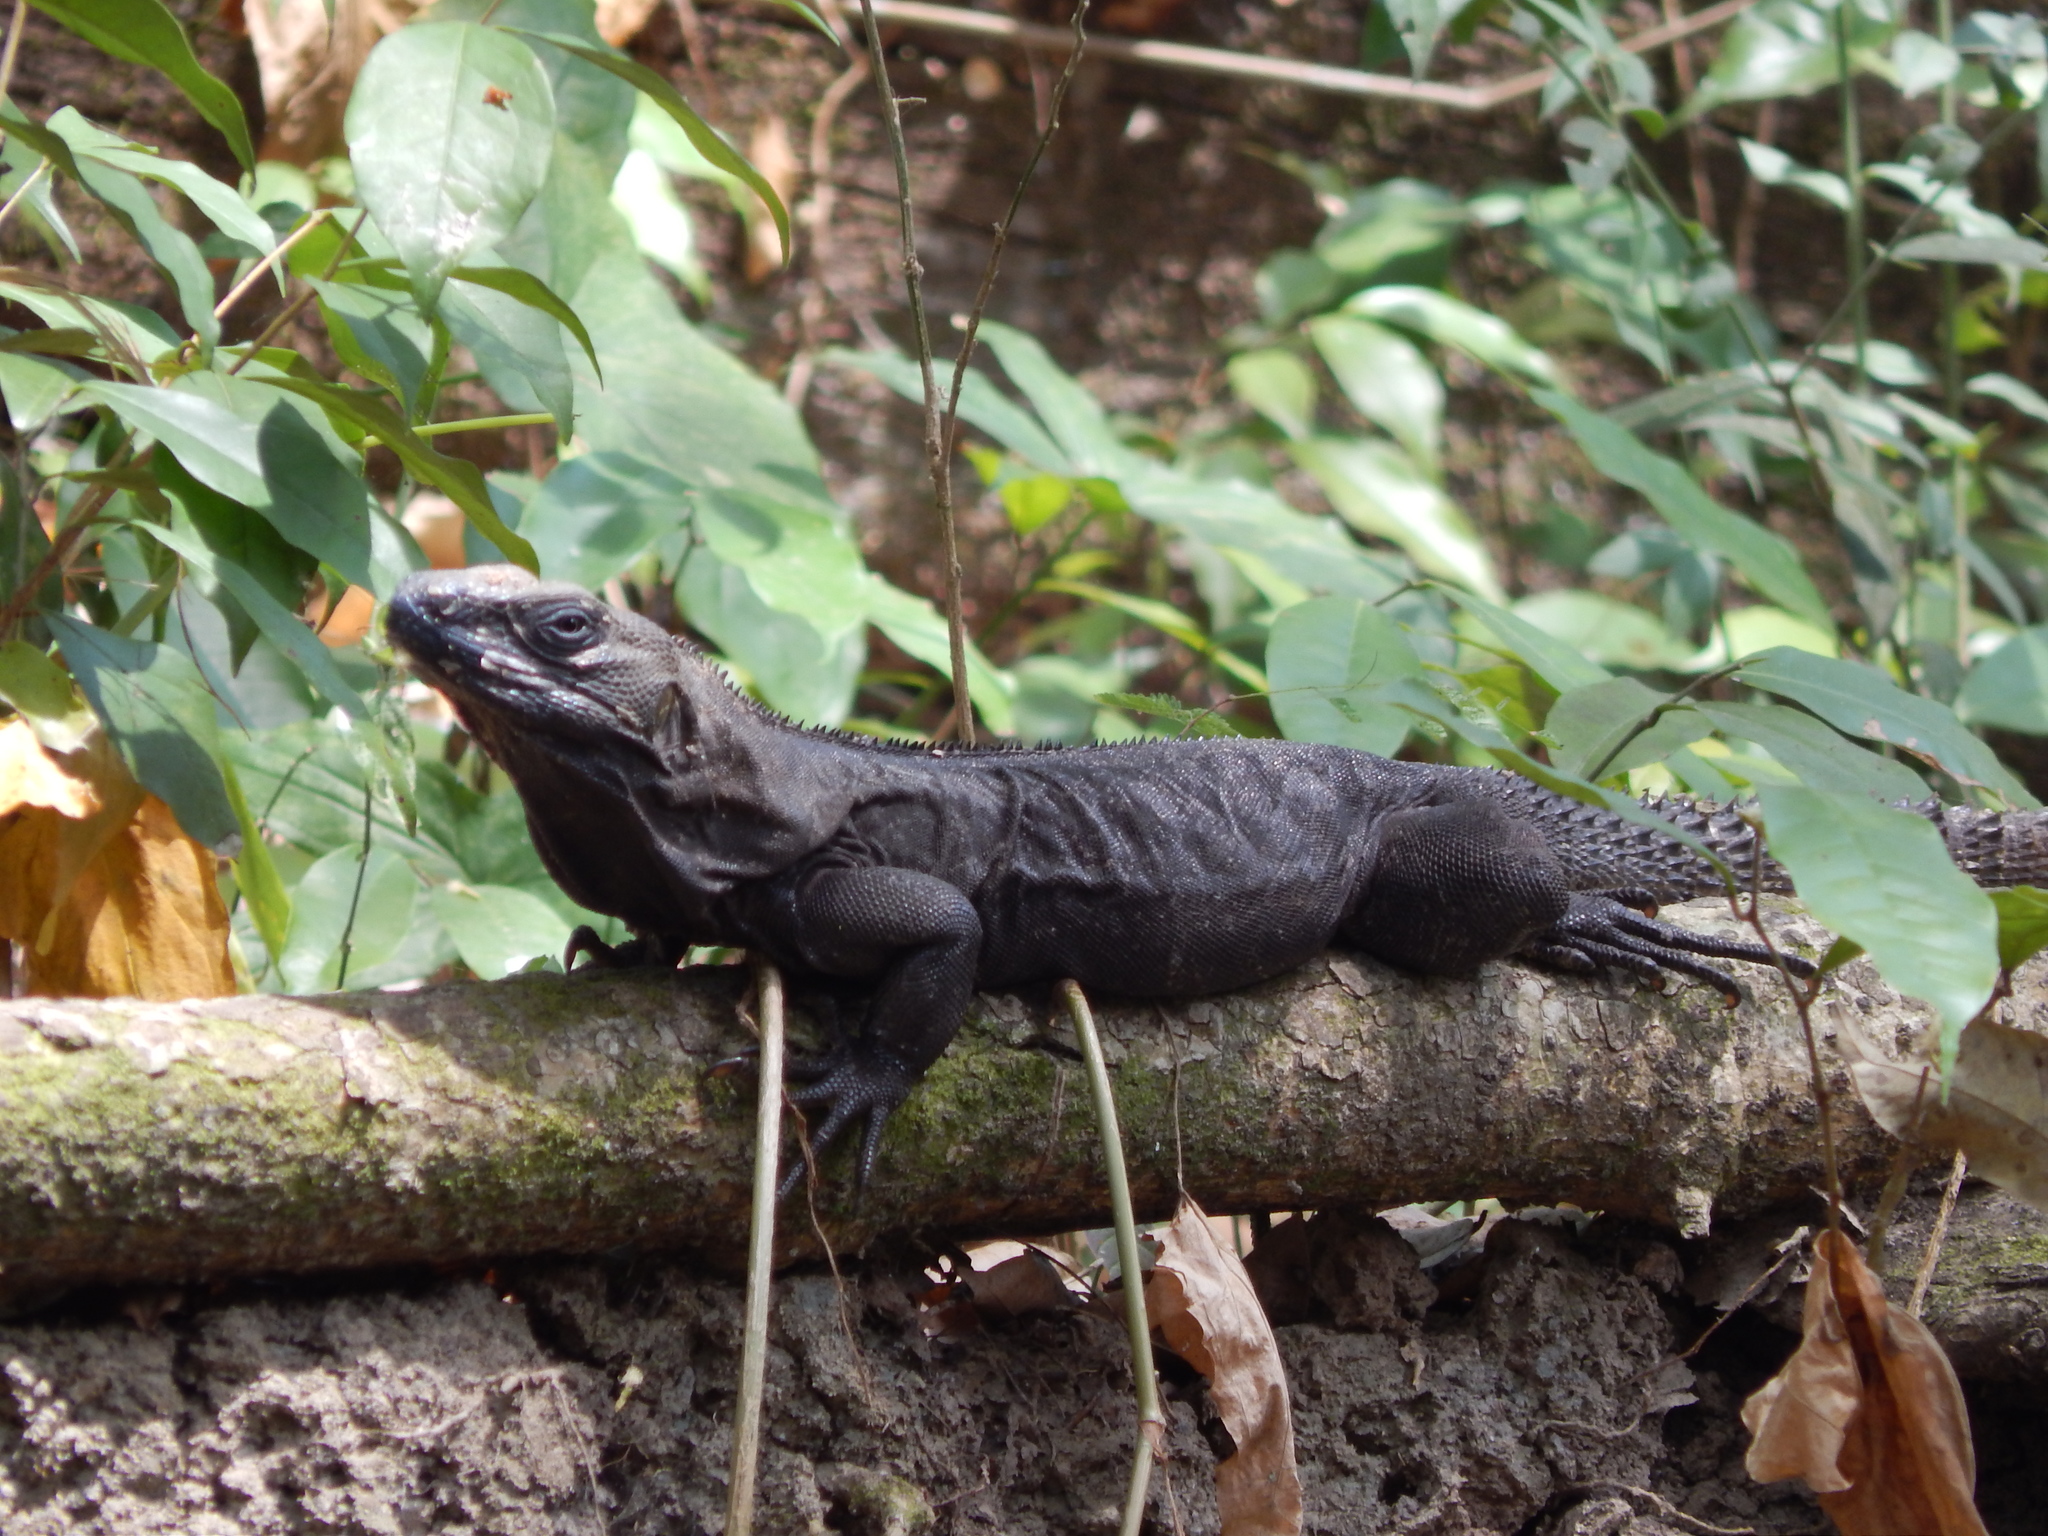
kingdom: Animalia
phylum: Chordata
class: Squamata
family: Iguanidae
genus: Ctenosaura
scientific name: Ctenosaura acanthura
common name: Northeastern spinytail iguana
